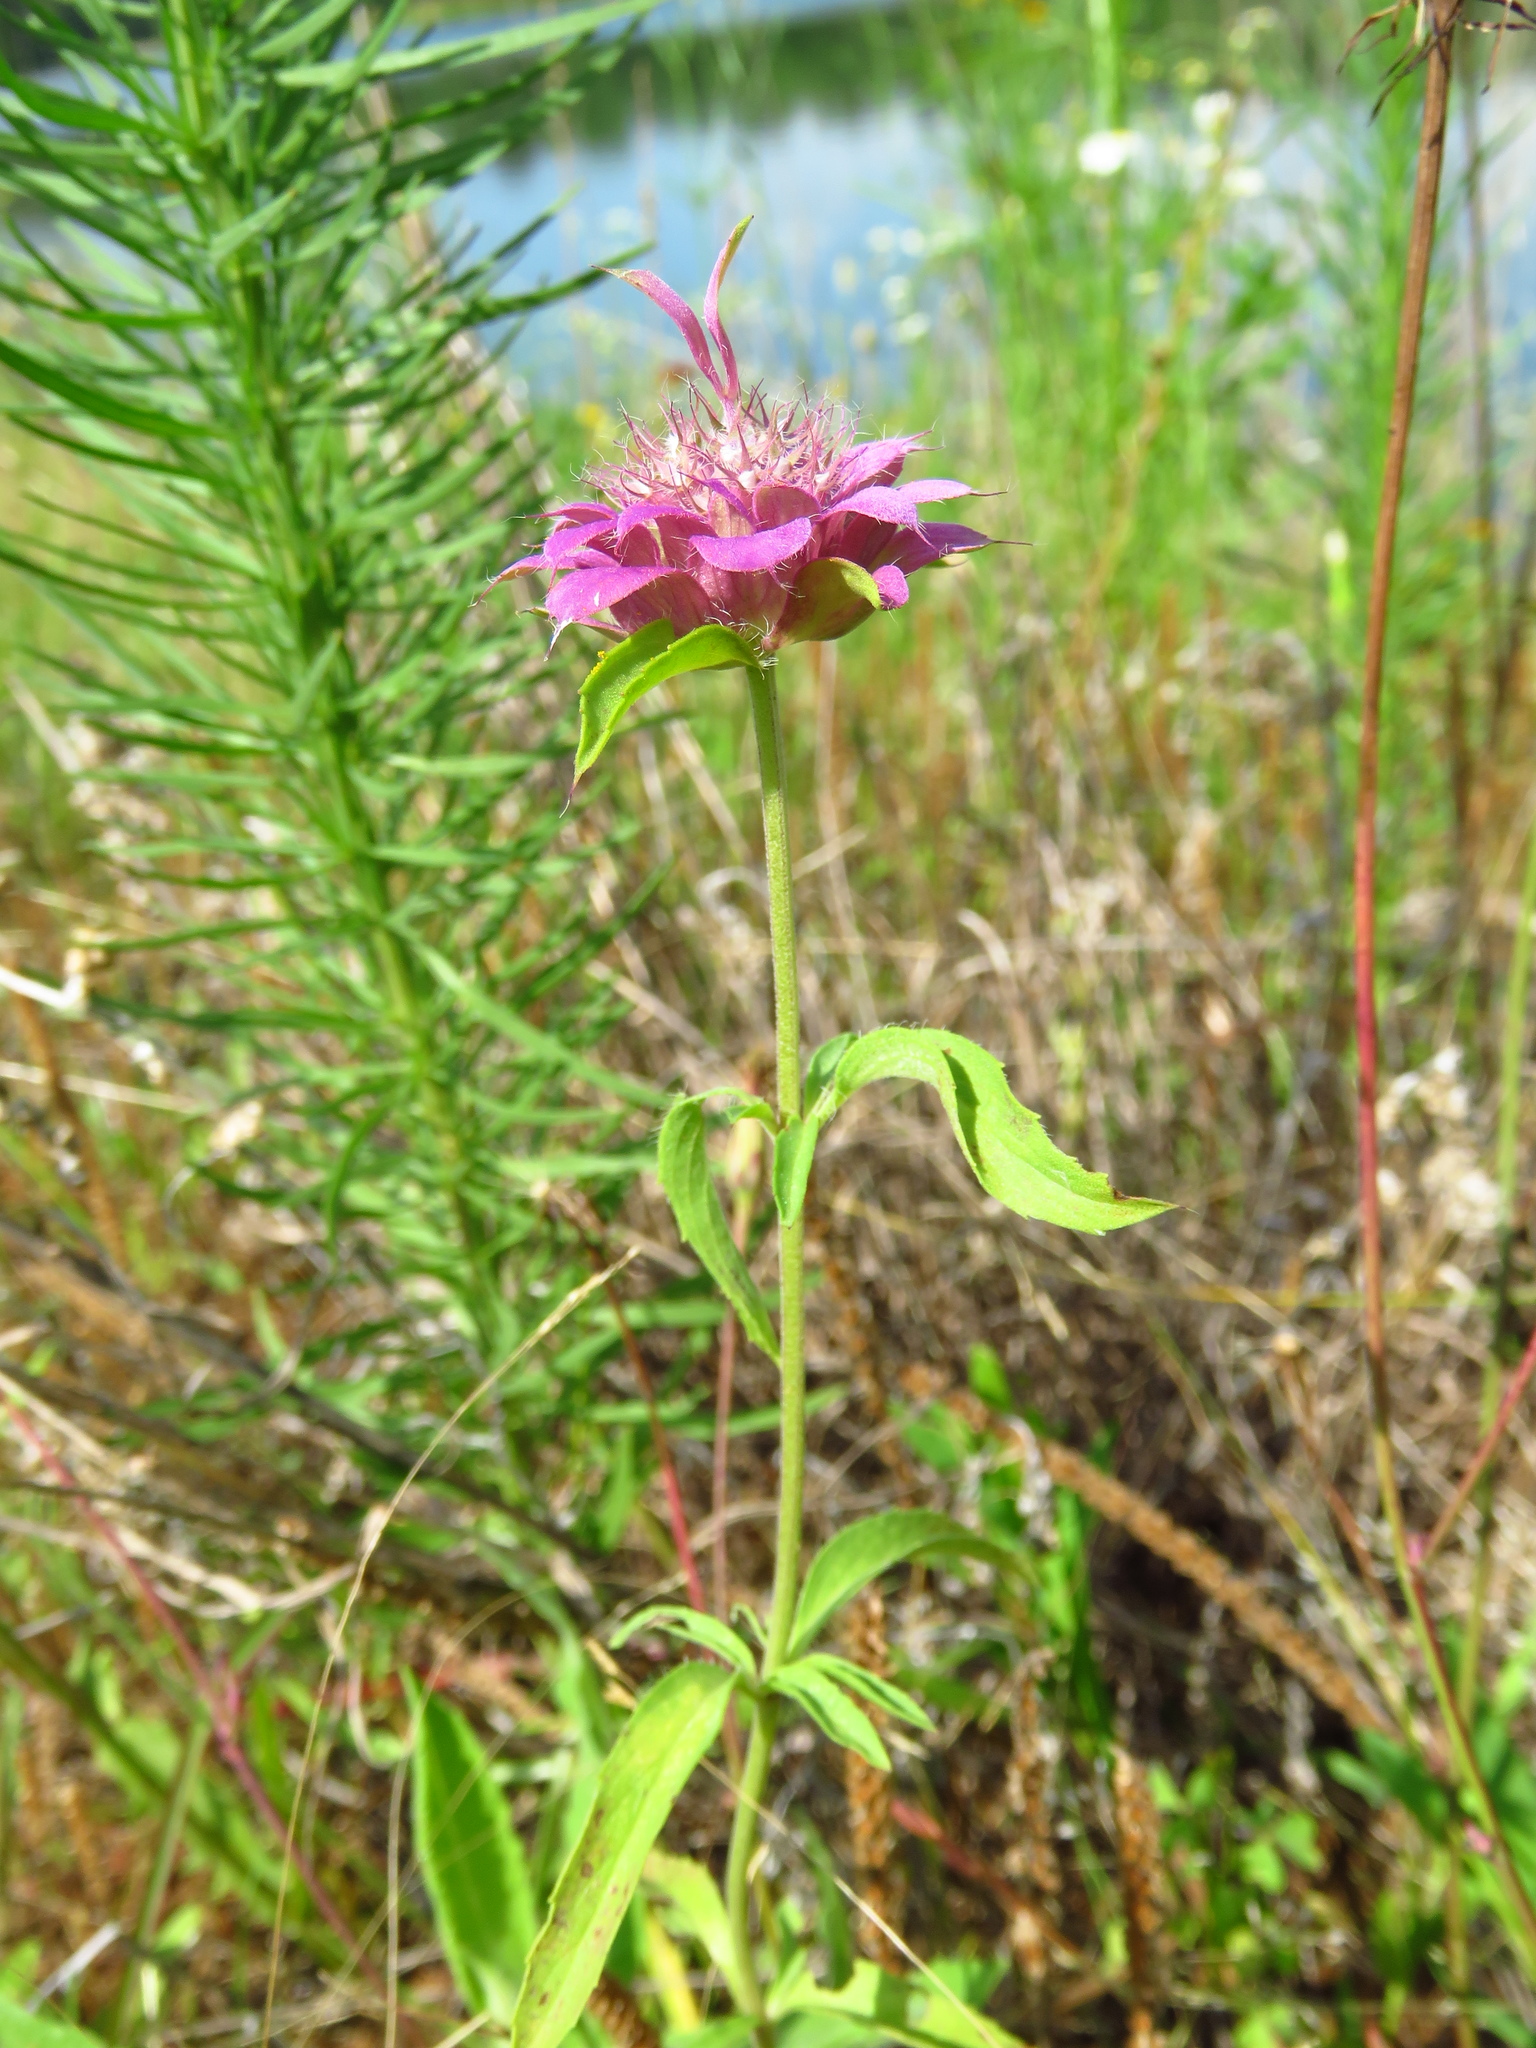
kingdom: Plantae
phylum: Tracheophyta
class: Magnoliopsida
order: Lamiales
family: Lamiaceae
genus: Monarda
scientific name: Monarda citriodora
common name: Lemon beebalm
